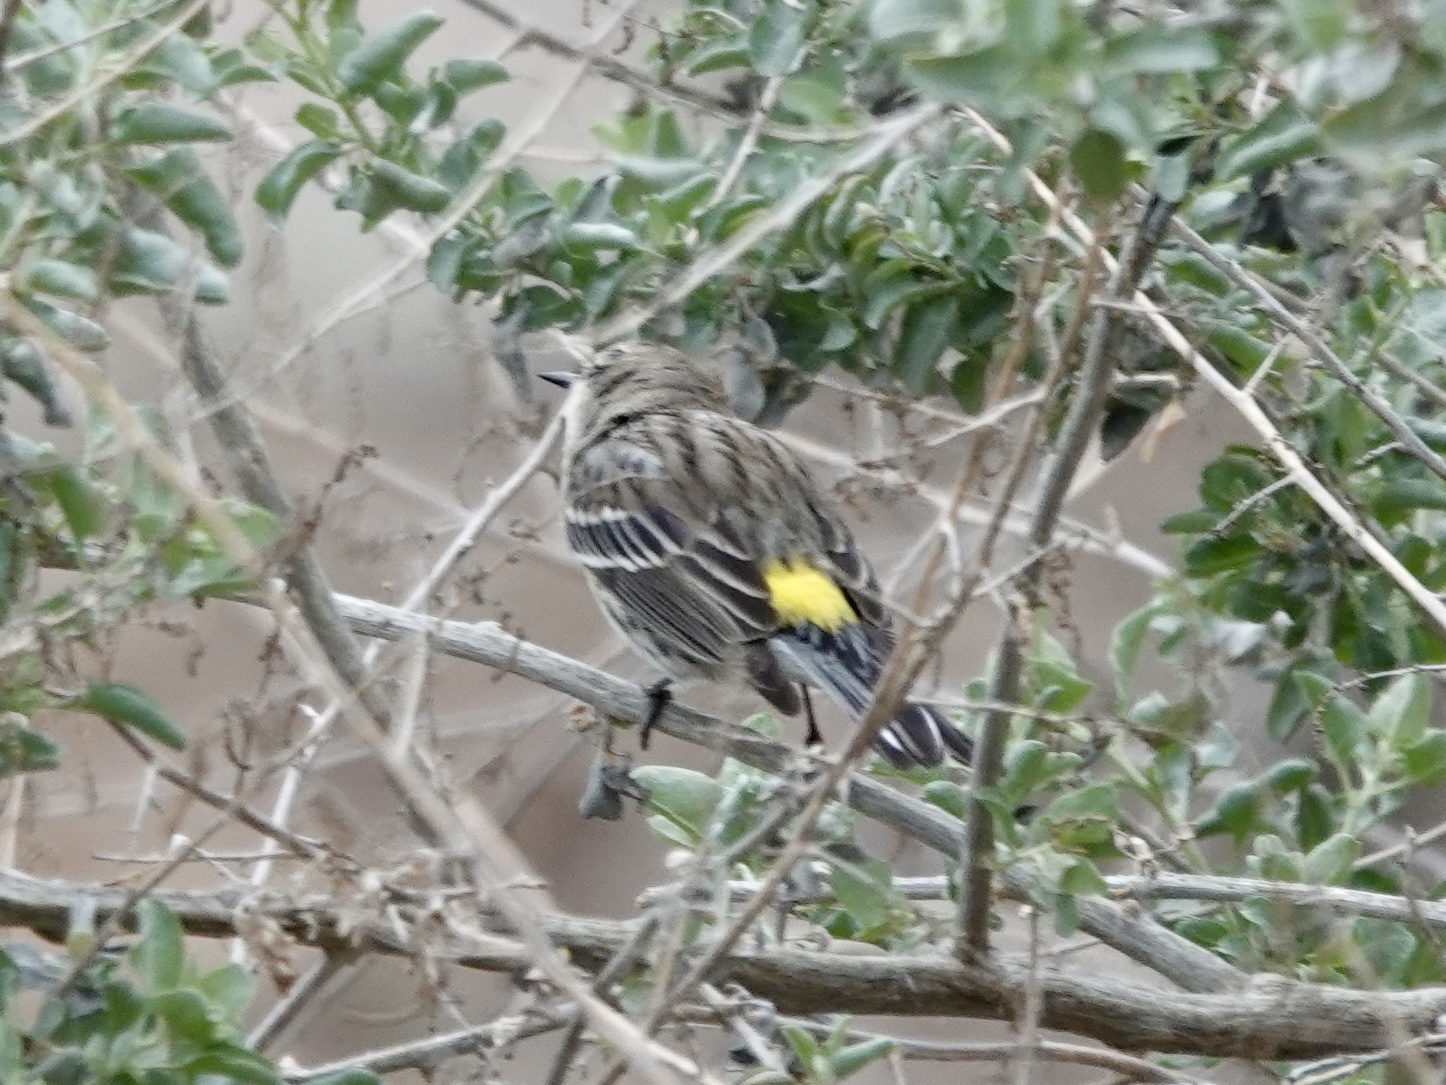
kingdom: Animalia
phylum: Chordata
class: Aves
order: Passeriformes
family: Parulidae
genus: Setophaga
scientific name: Setophaga coronata
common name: Myrtle warbler
